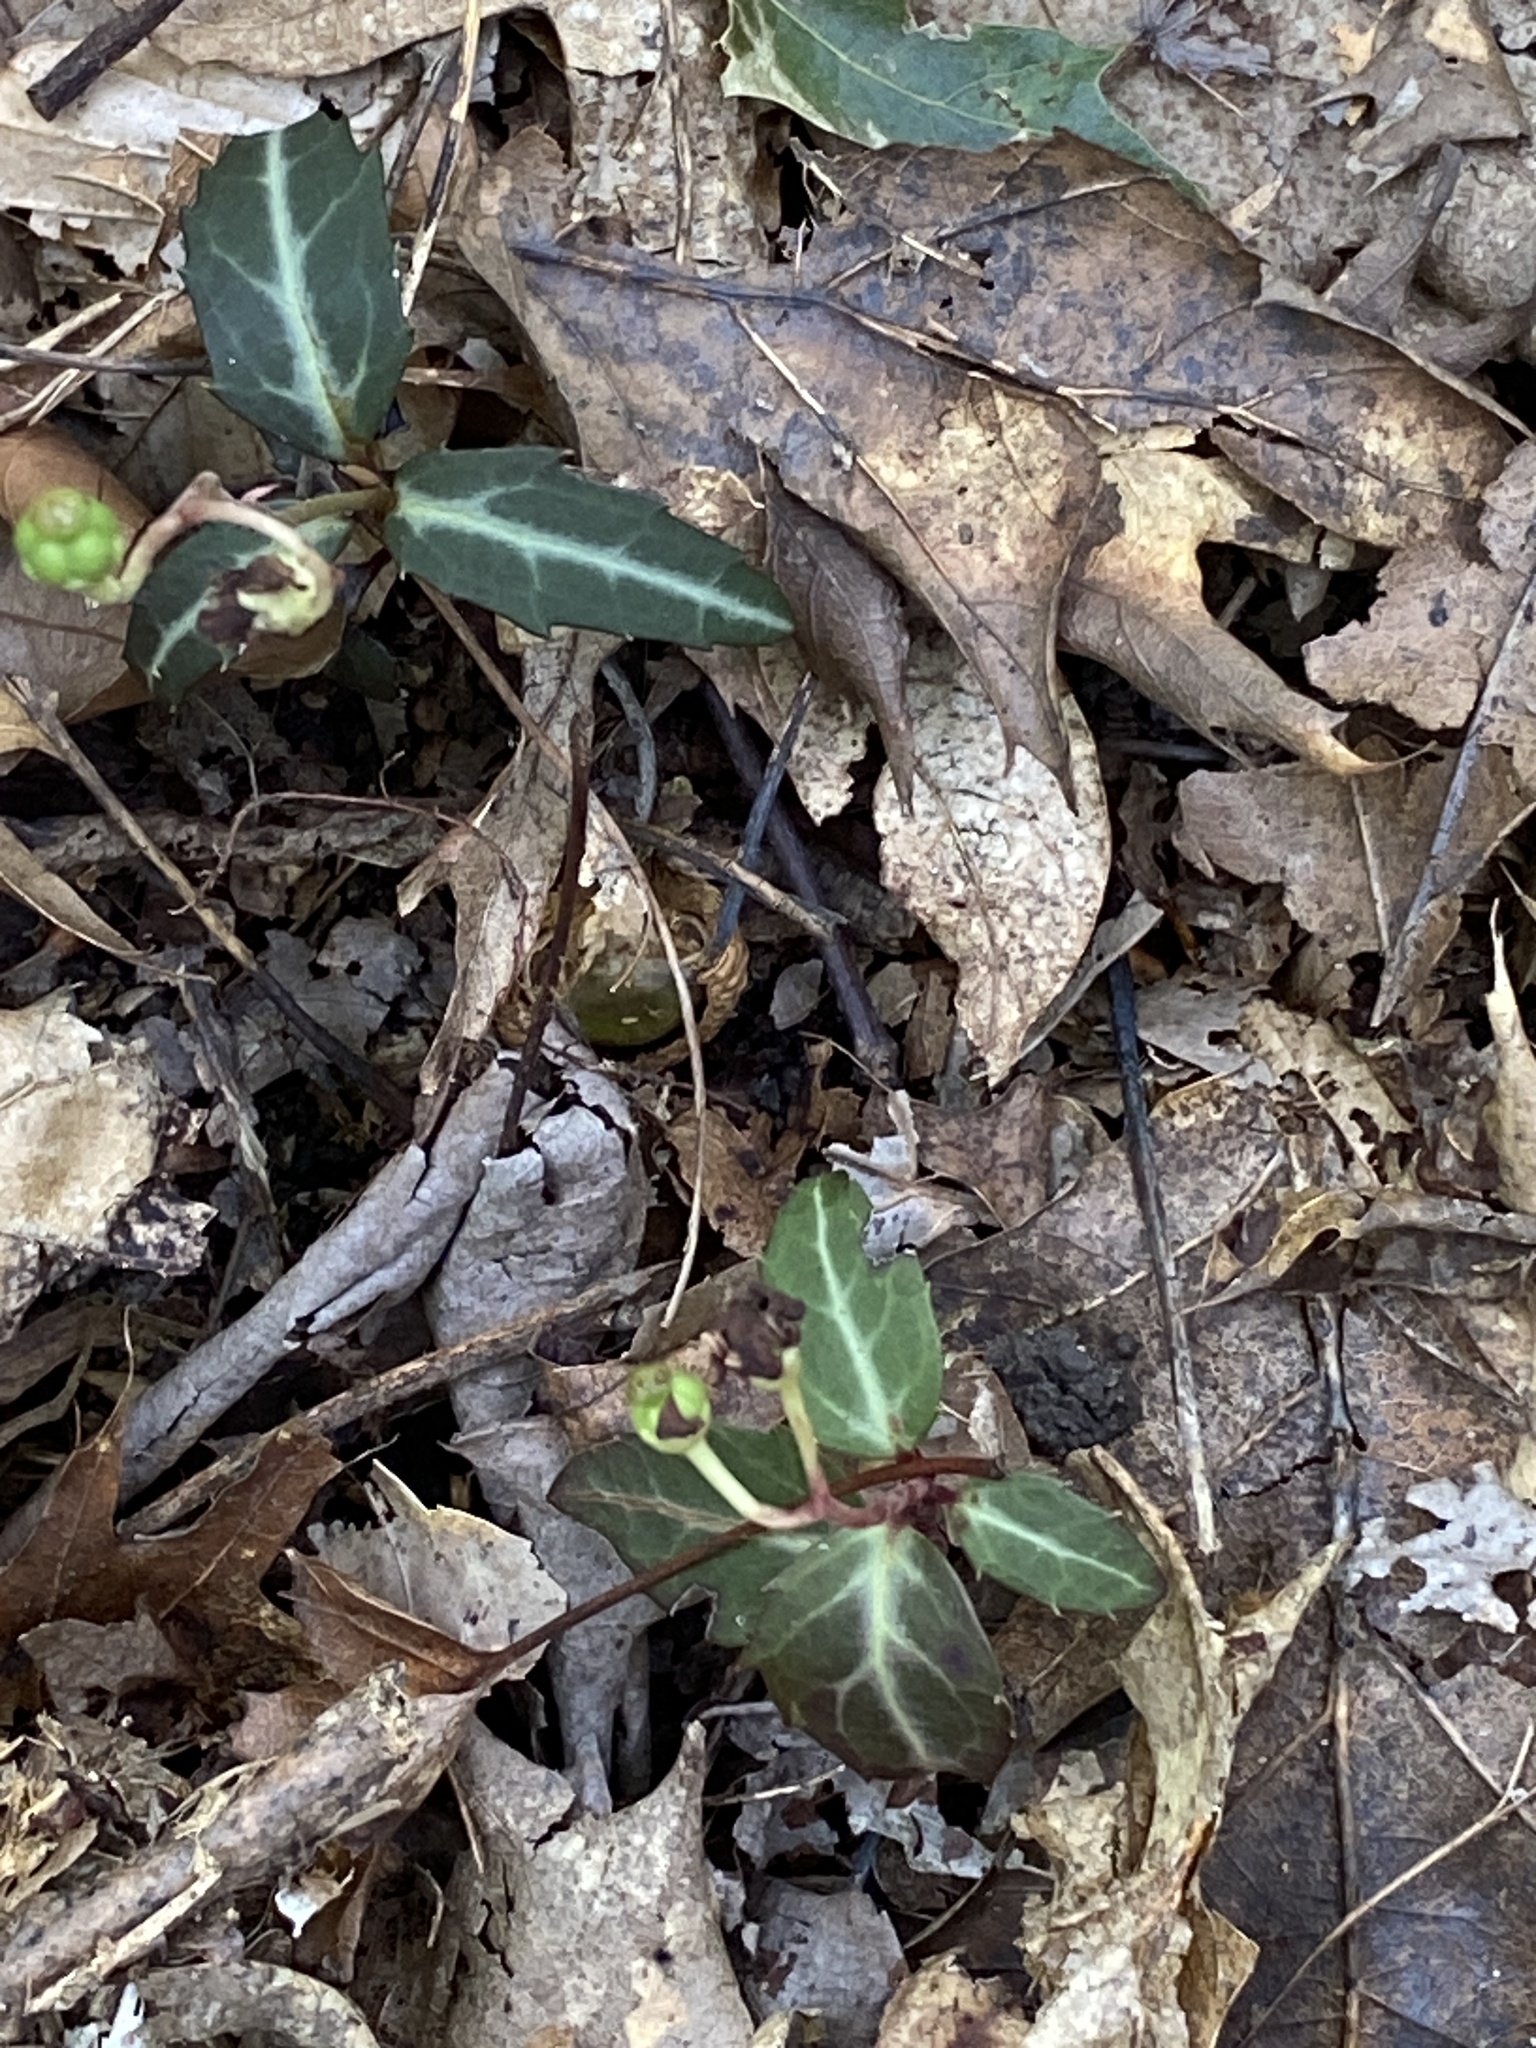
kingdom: Plantae
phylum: Tracheophyta
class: Magnoliopsida
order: Ericales
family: Ericaceae
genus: Chimaphila
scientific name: Chimaphila maculata
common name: Spotted pipsissewa
